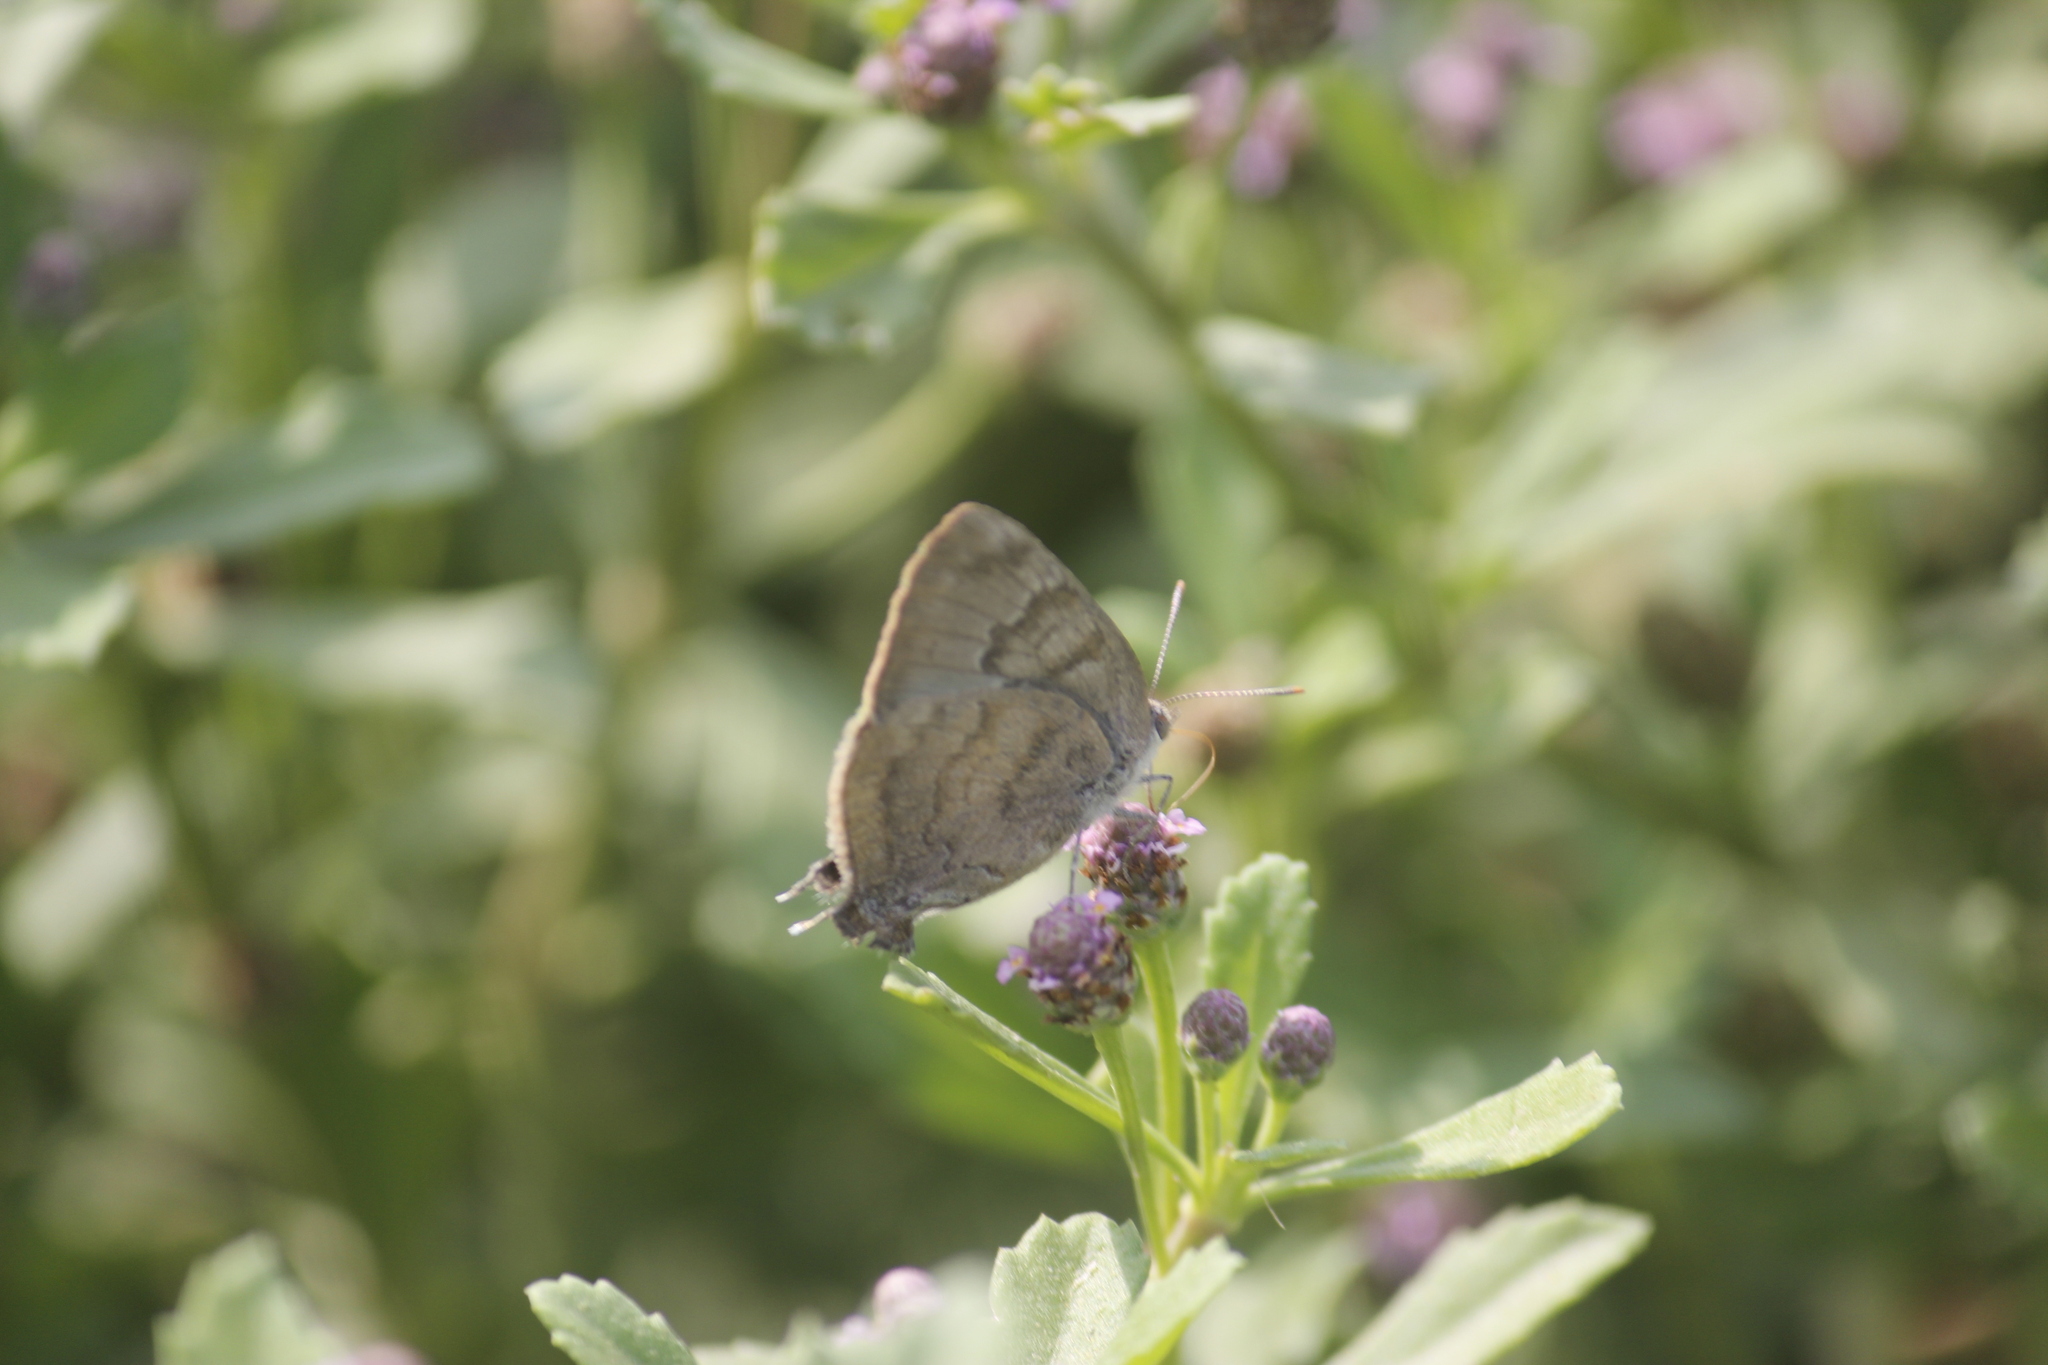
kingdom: Animalia
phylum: Arthropoda
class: Insecta
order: Lepidoptera
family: Lycaenidae
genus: Rekoa
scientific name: Rekoa palegon
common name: Gold-bordered hairstreak
